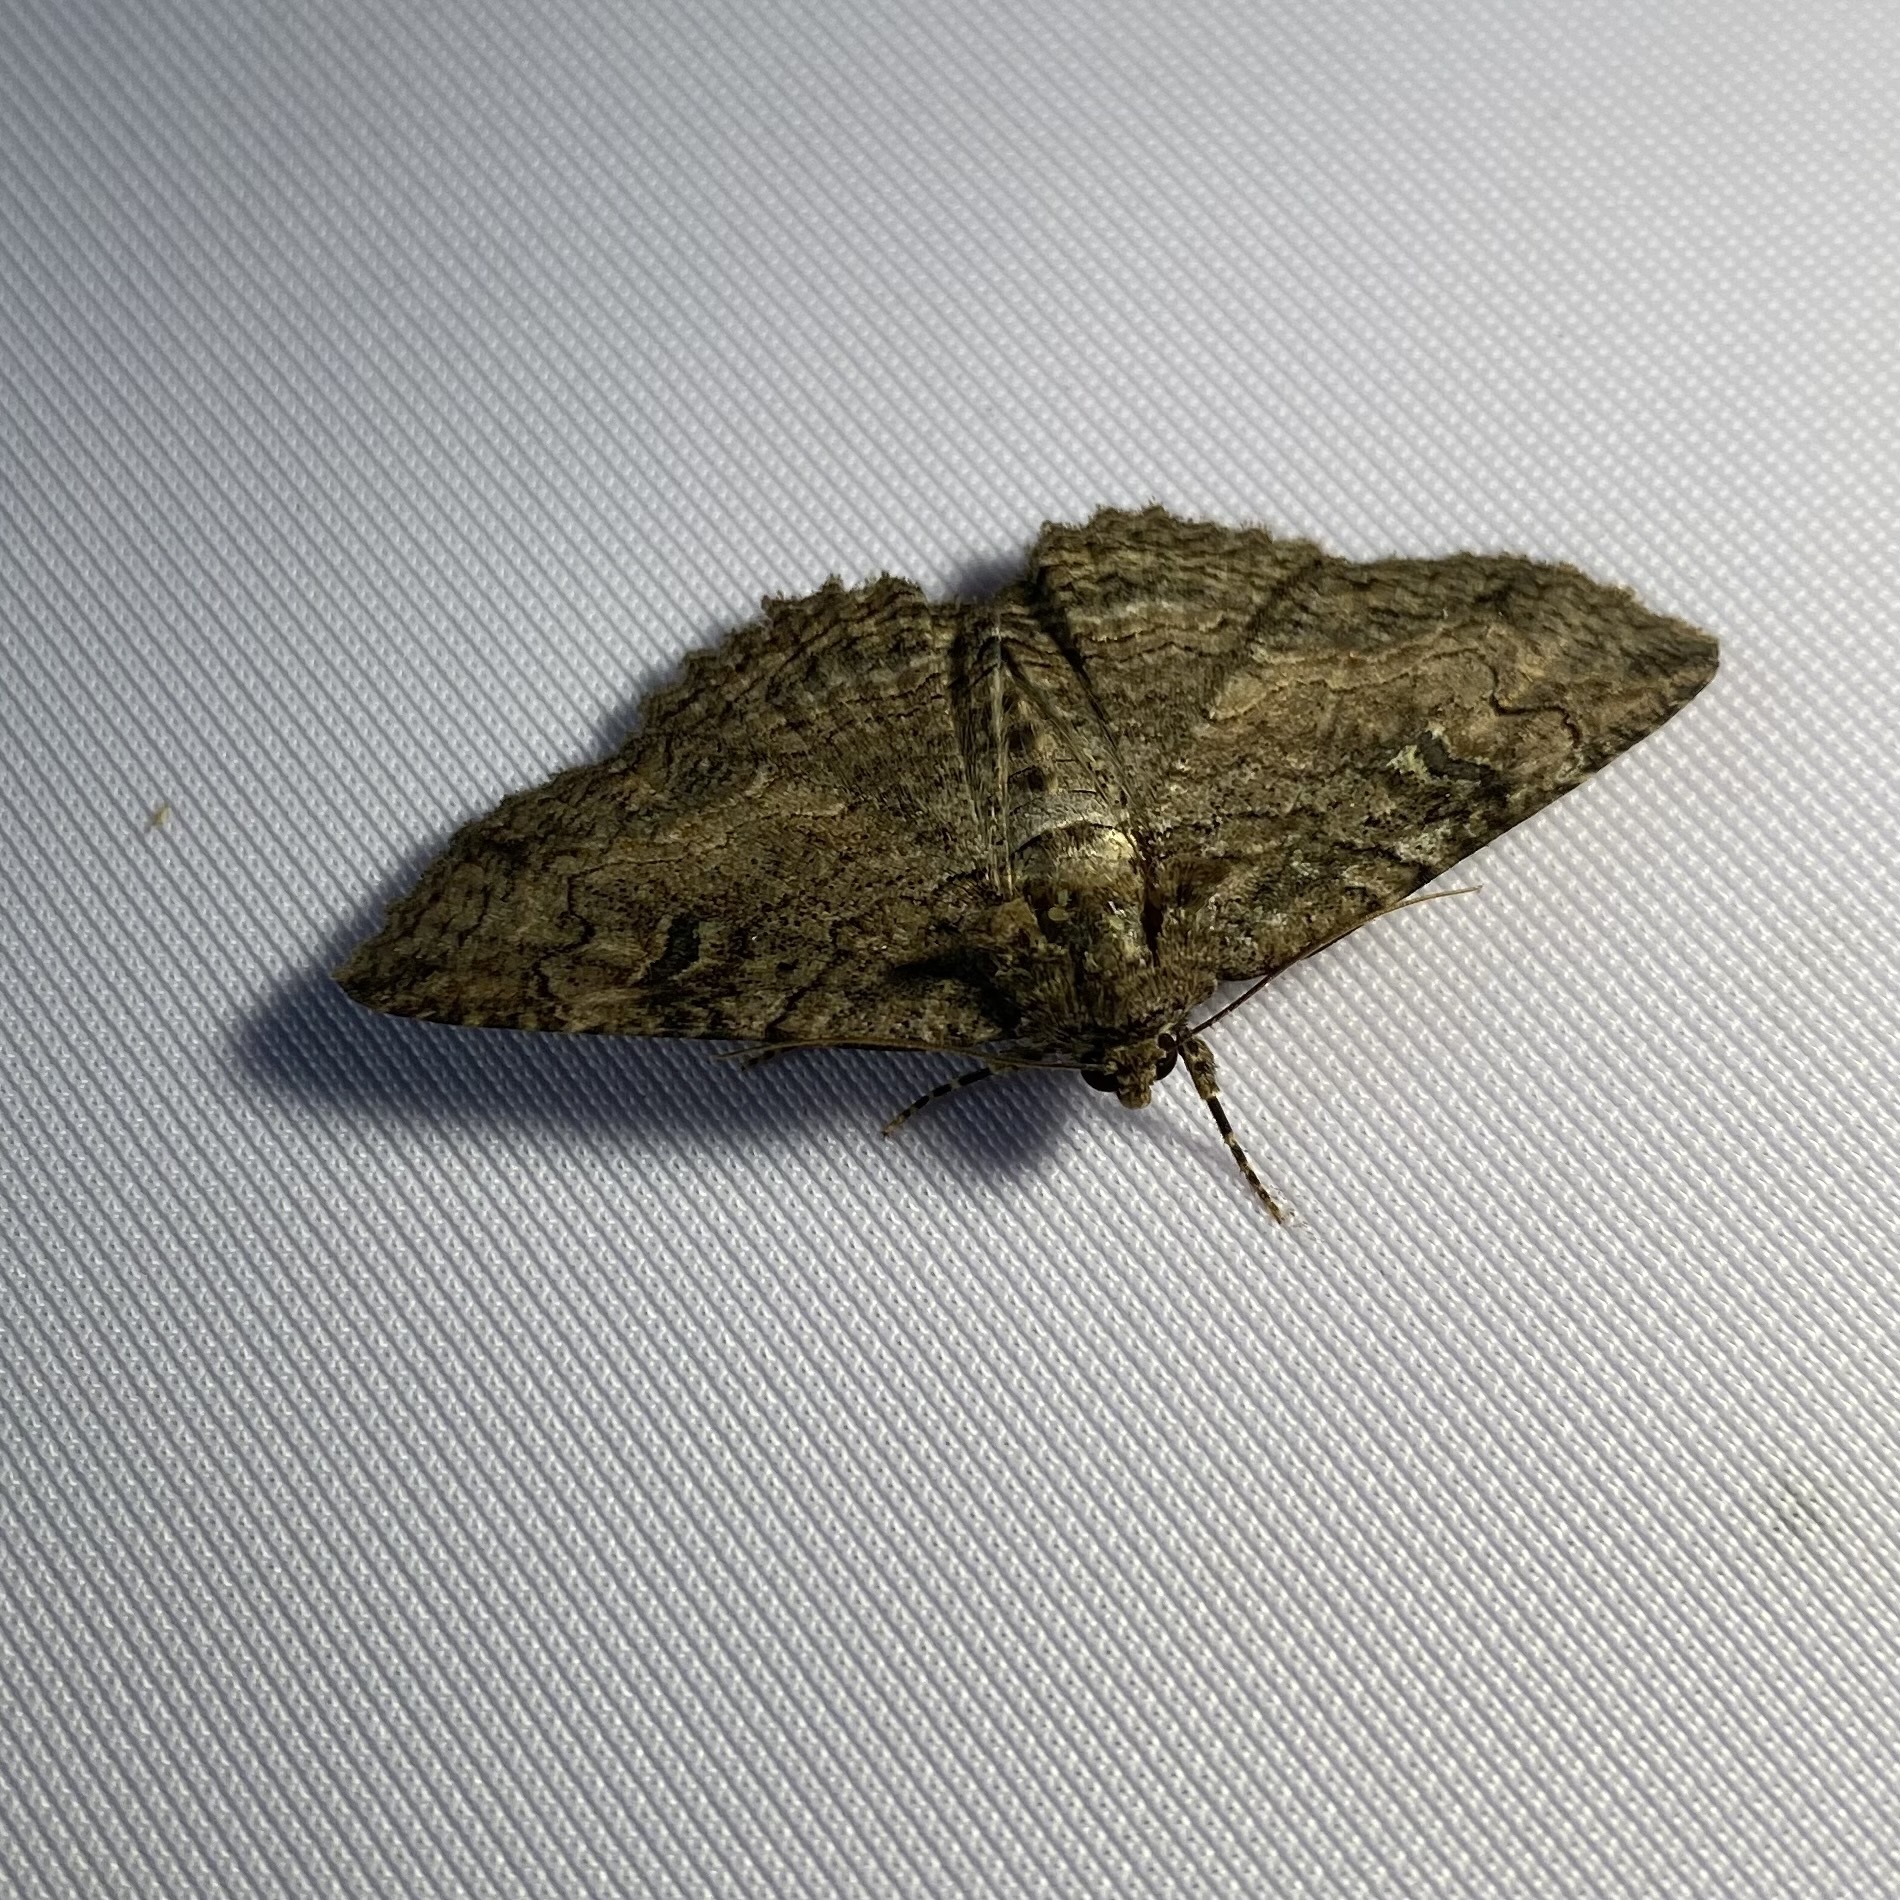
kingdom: Animalia
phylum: Arthropoda
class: Insecta
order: Lepidoptera
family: Erebidae
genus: Zale
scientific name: Zale galbanata
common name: Maple zale
